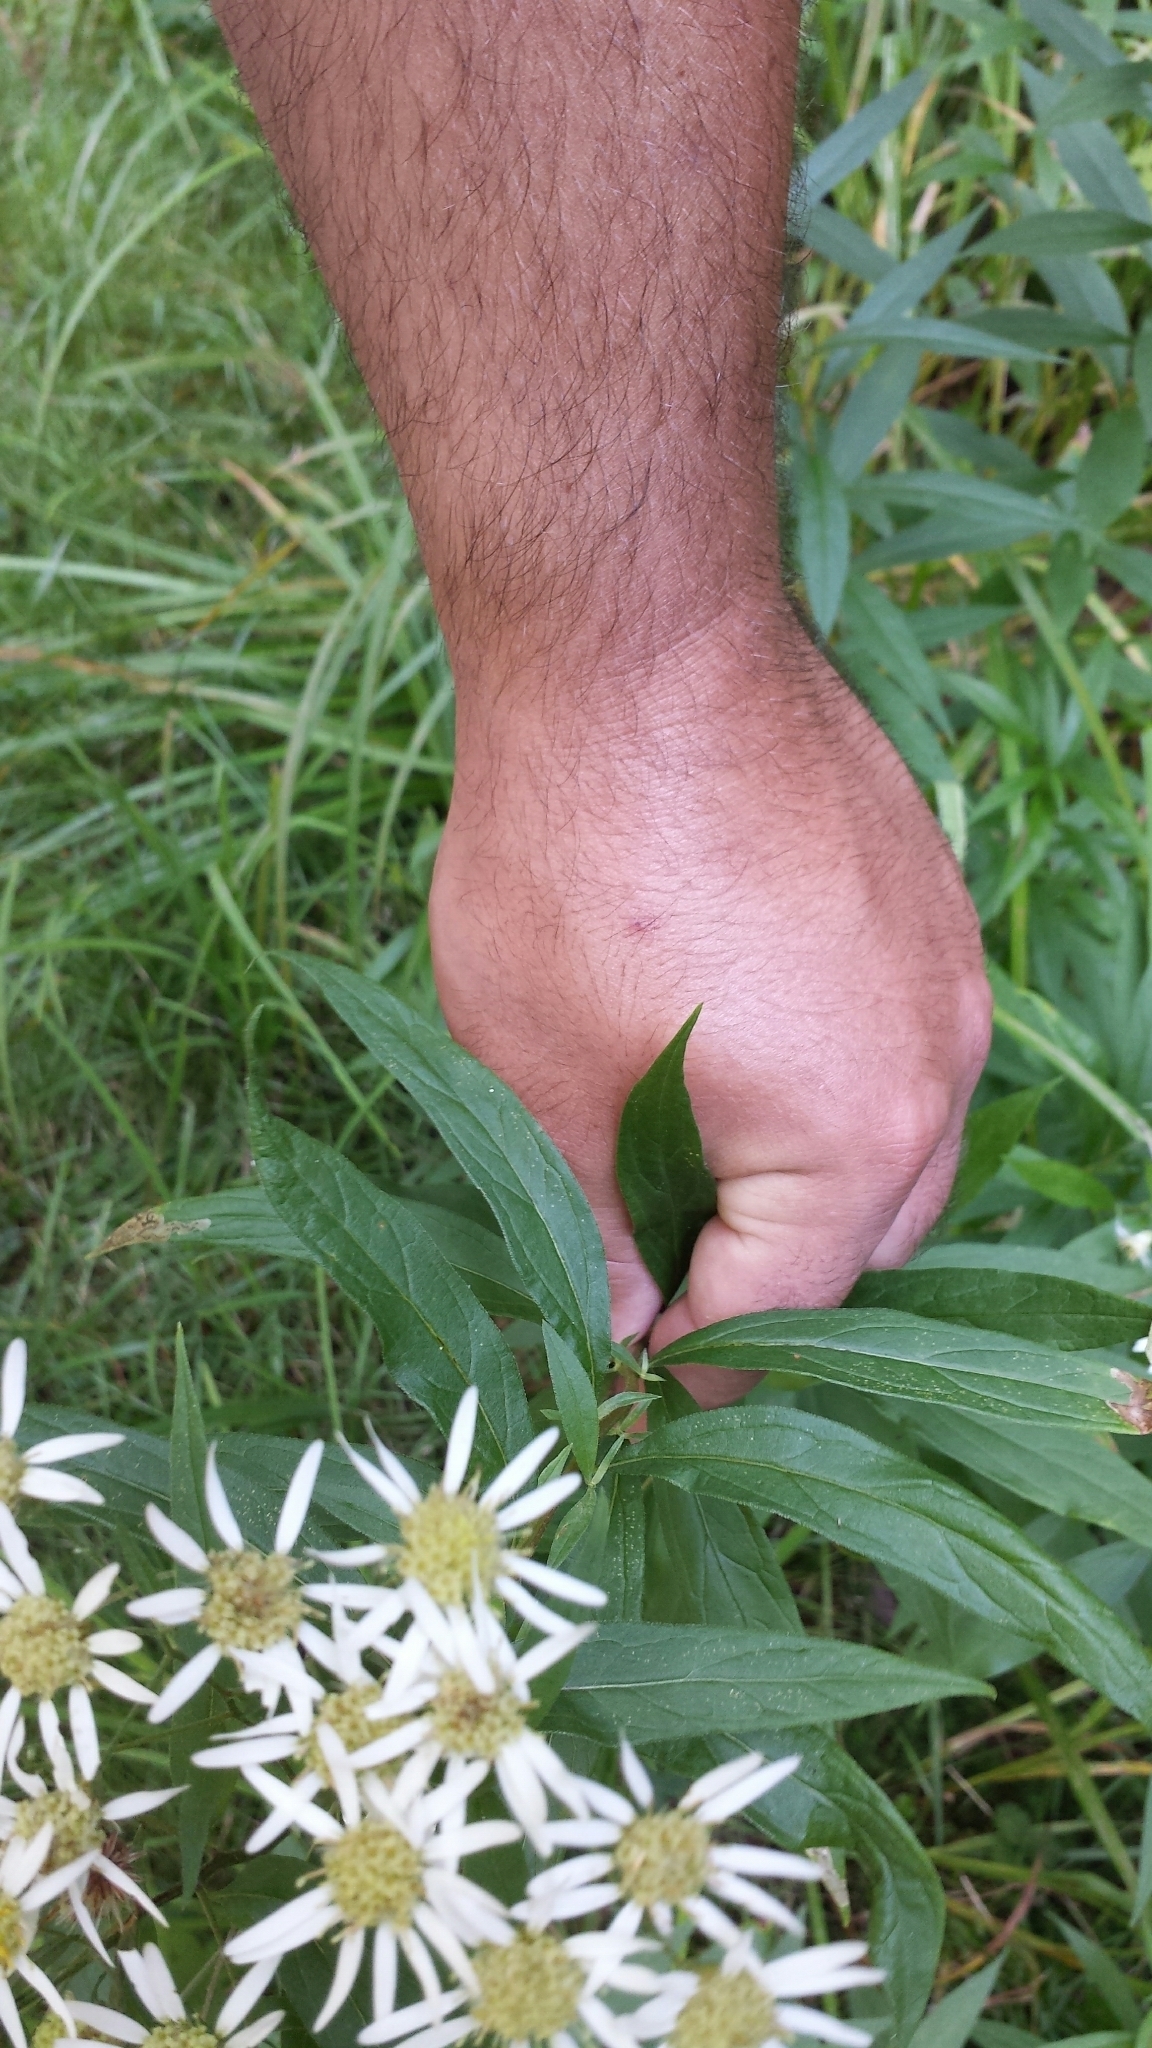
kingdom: Plantae
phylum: Tracheophyta
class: Magnoliopsida
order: Asterales
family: Asteraceae
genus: Doellingeria
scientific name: Doellingeria umbellata
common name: Flat-top white aster
